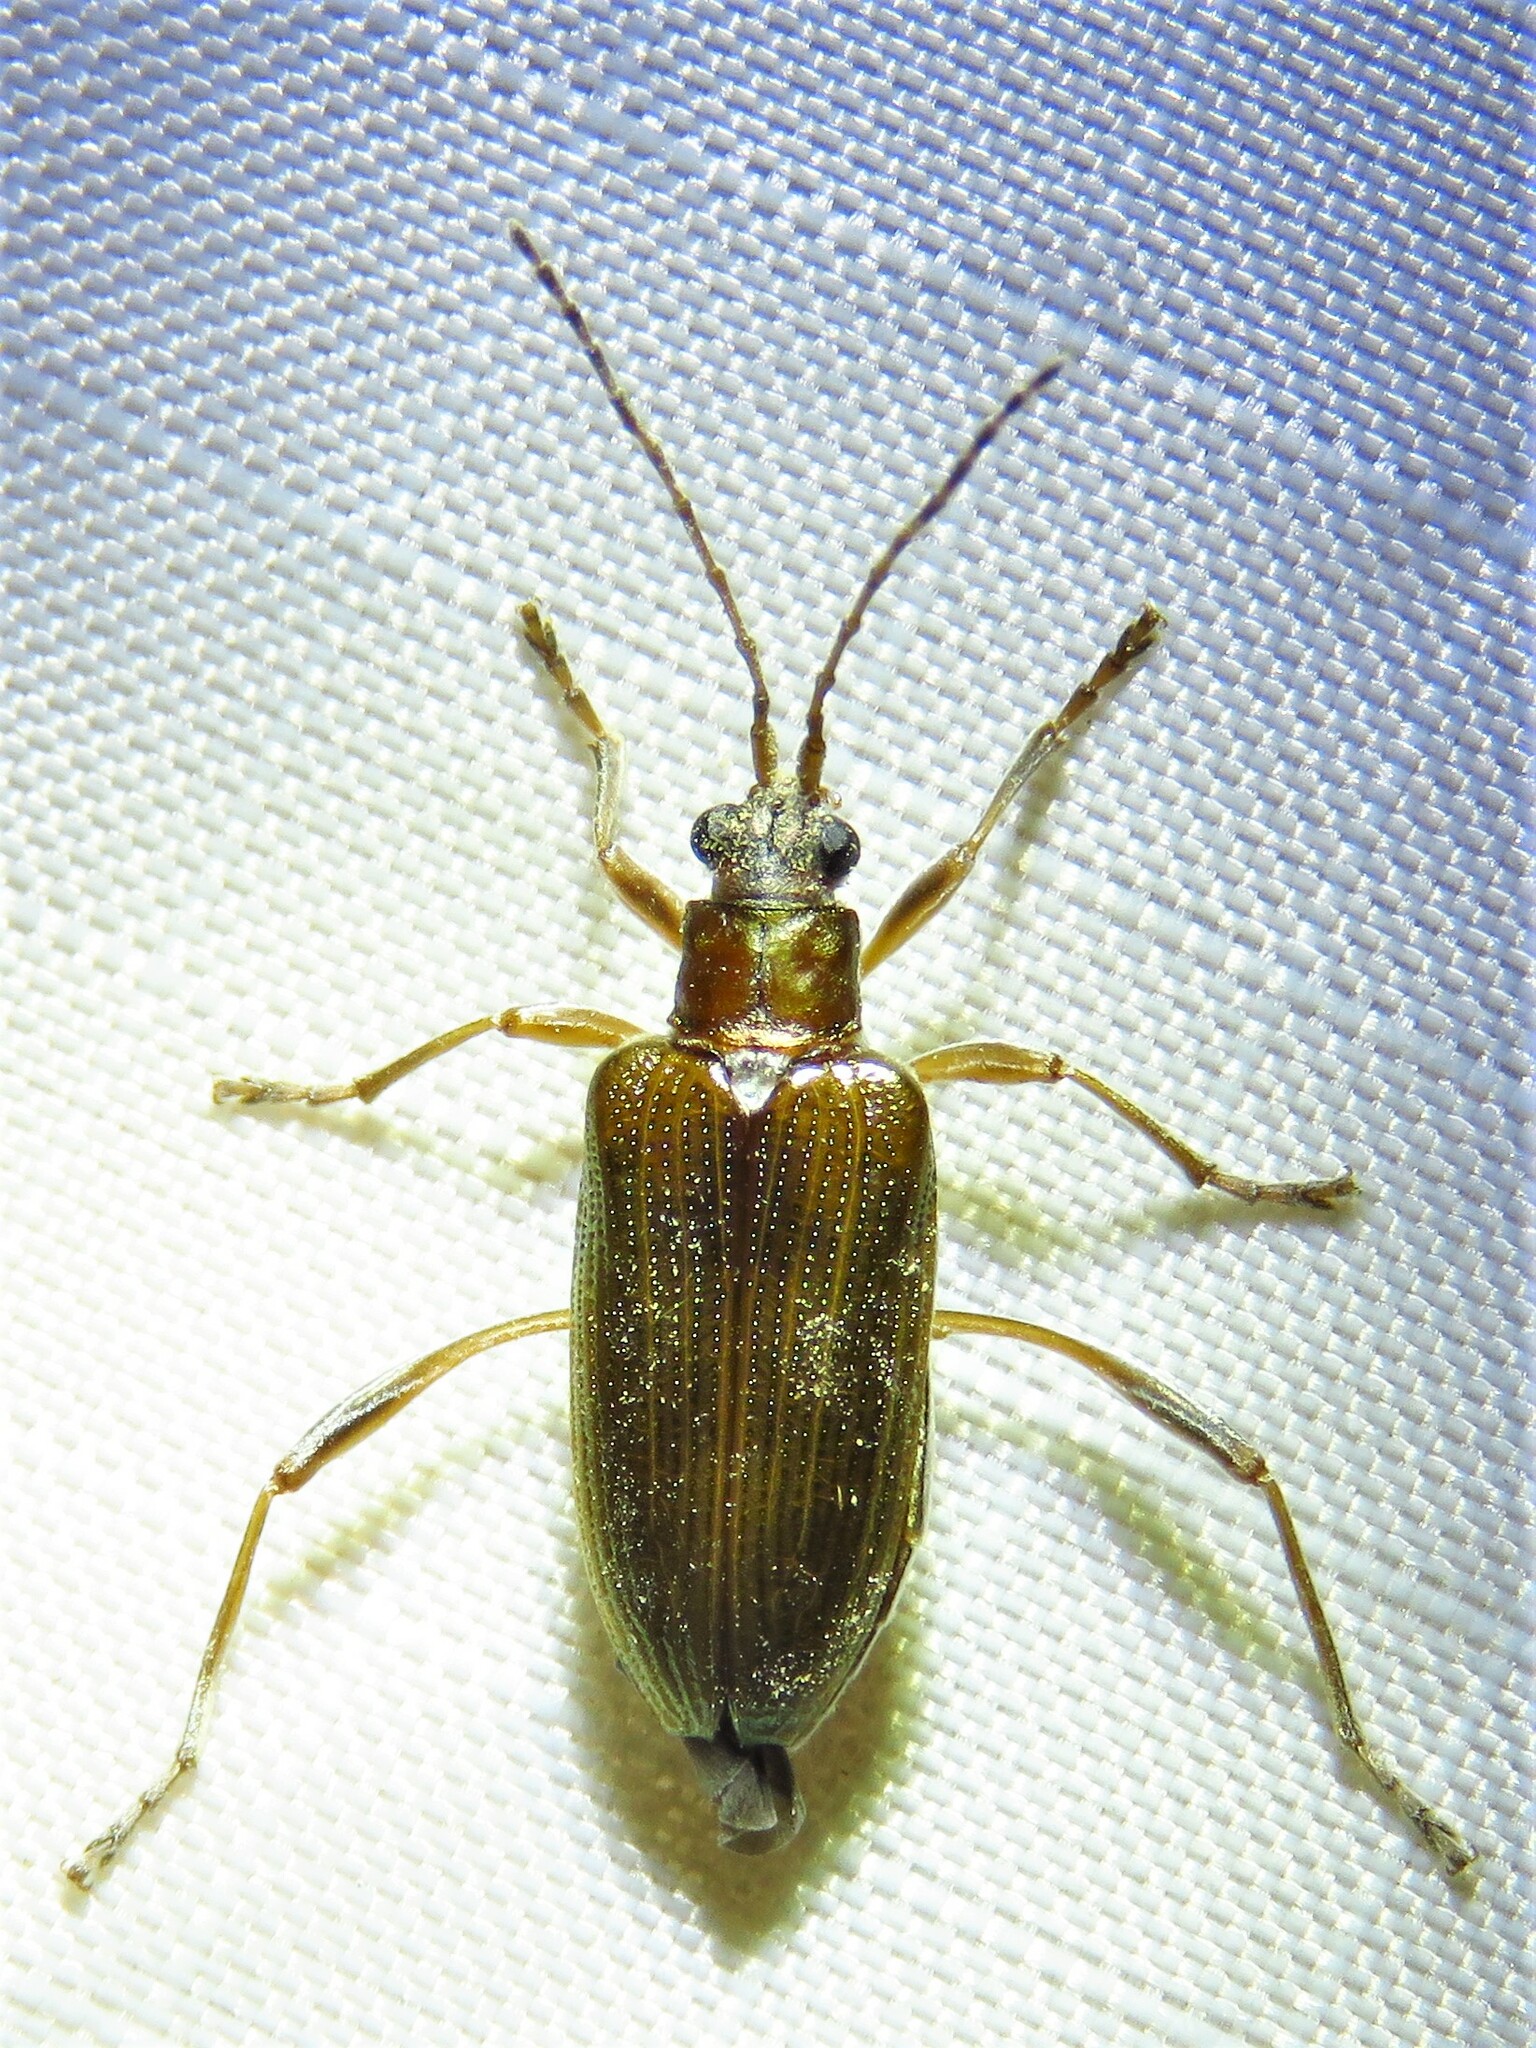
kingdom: Animalia
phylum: Arthropoda
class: Insecta
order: Coleoptera
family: Chrysomelidae
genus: Donacia
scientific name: Donacia edentata
